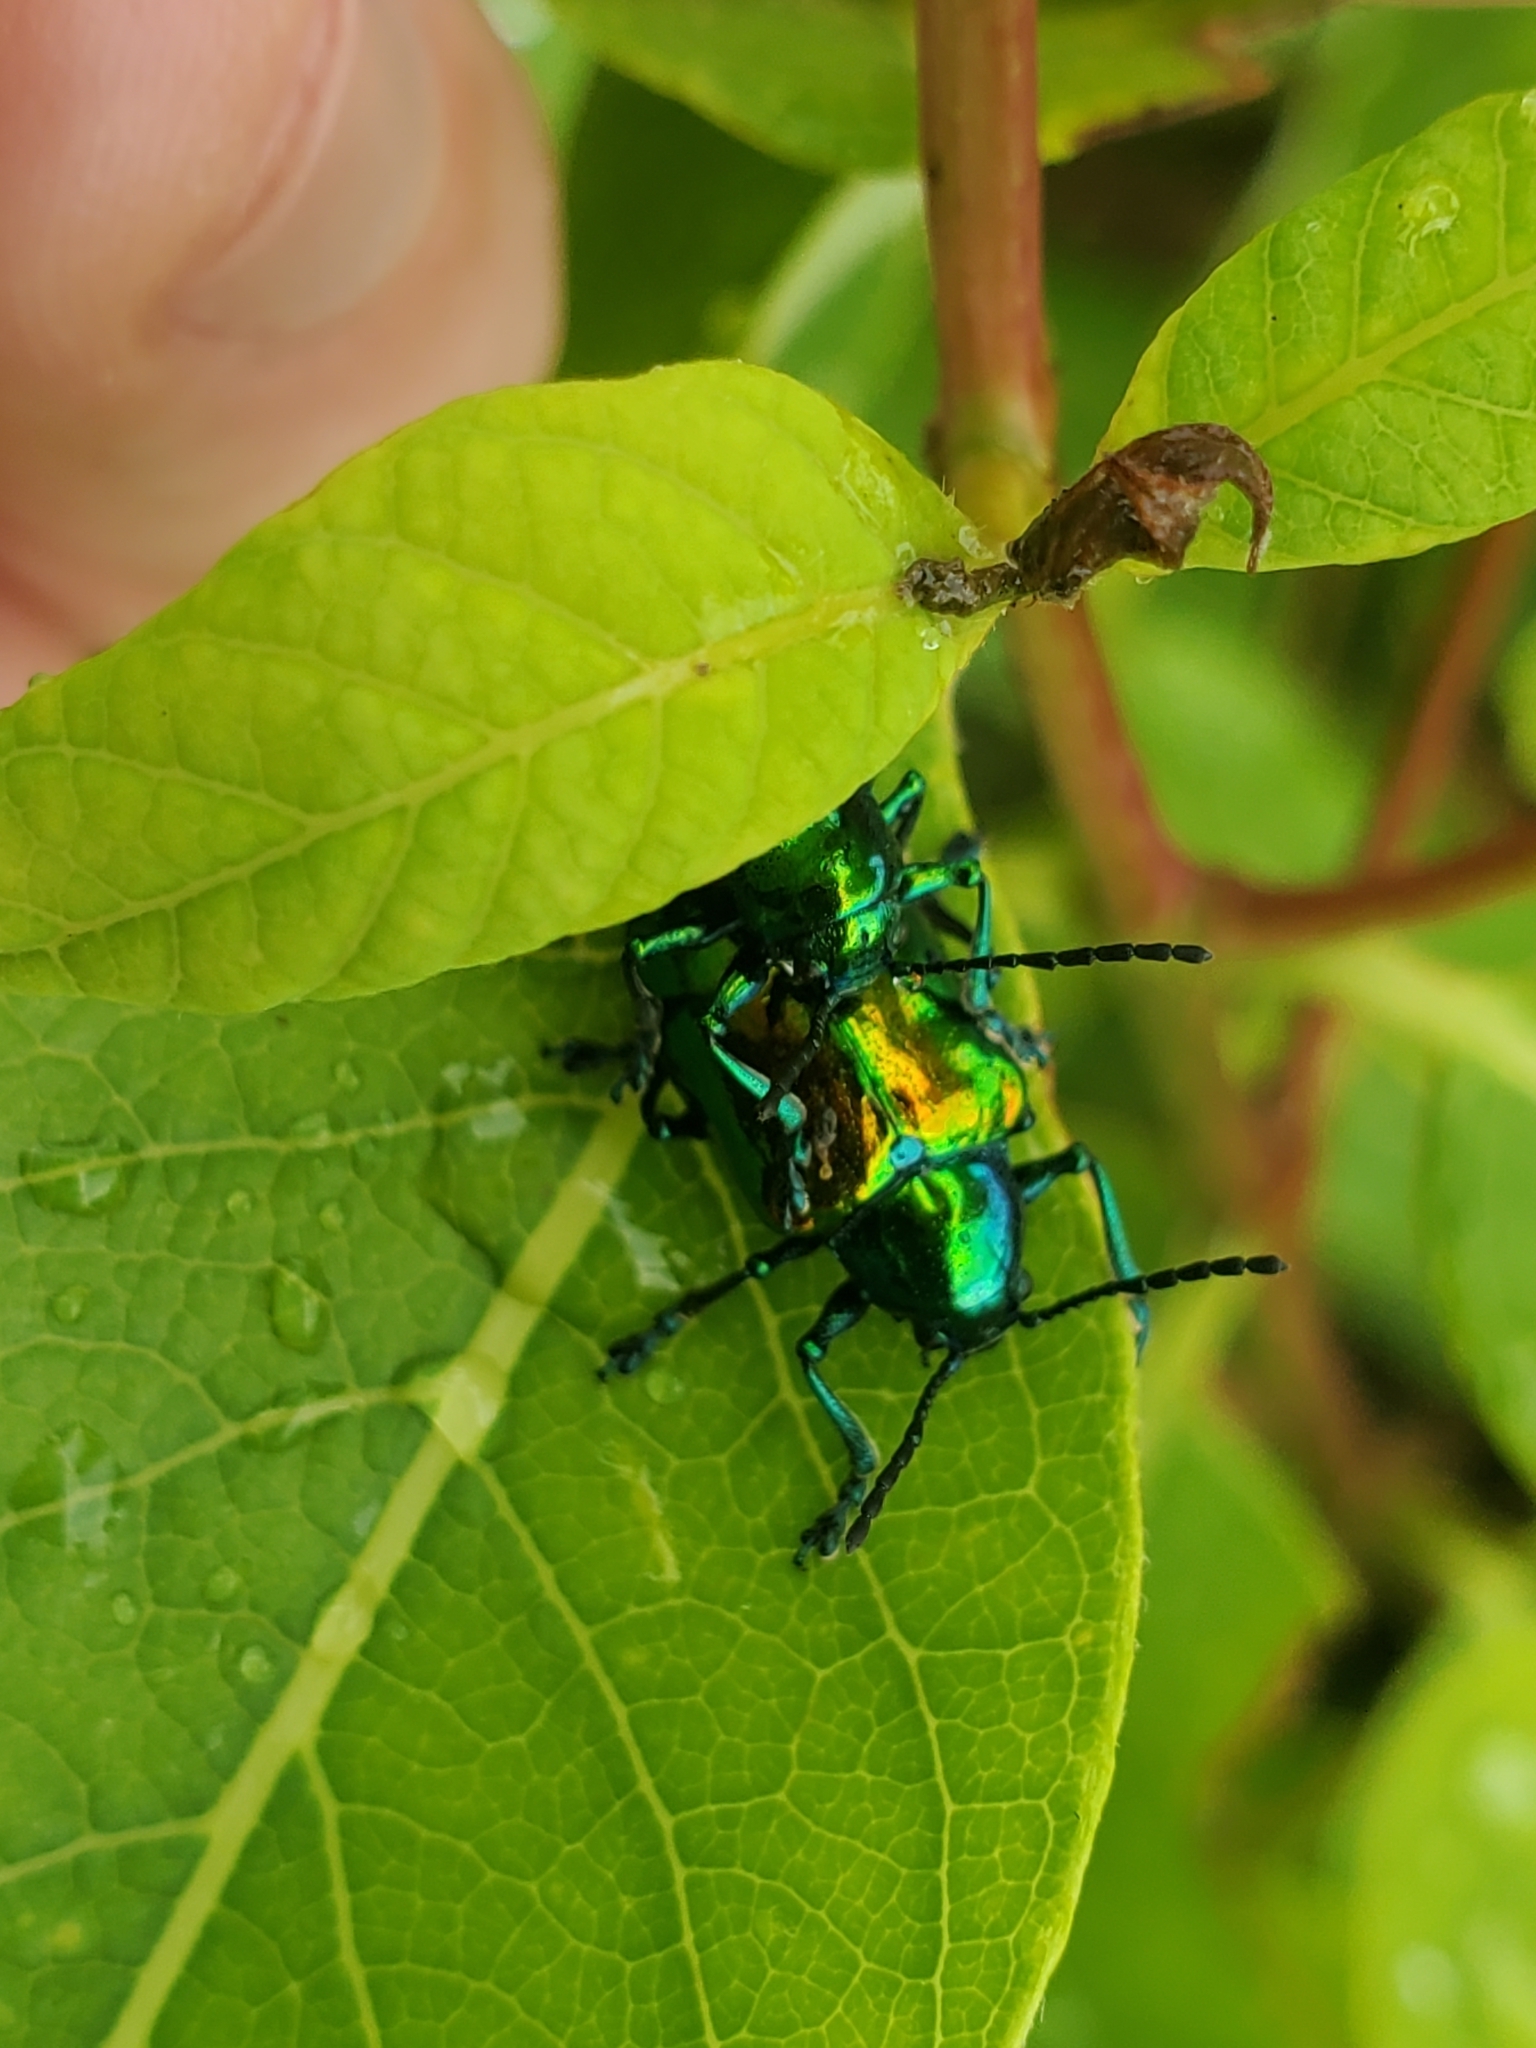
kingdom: Animalia
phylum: Arthropoda
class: Insecta
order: Coleoptera
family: Chrysomelidae
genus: Chrysochus
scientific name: Chrysochus auratus
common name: Dogbane leaf beetle
